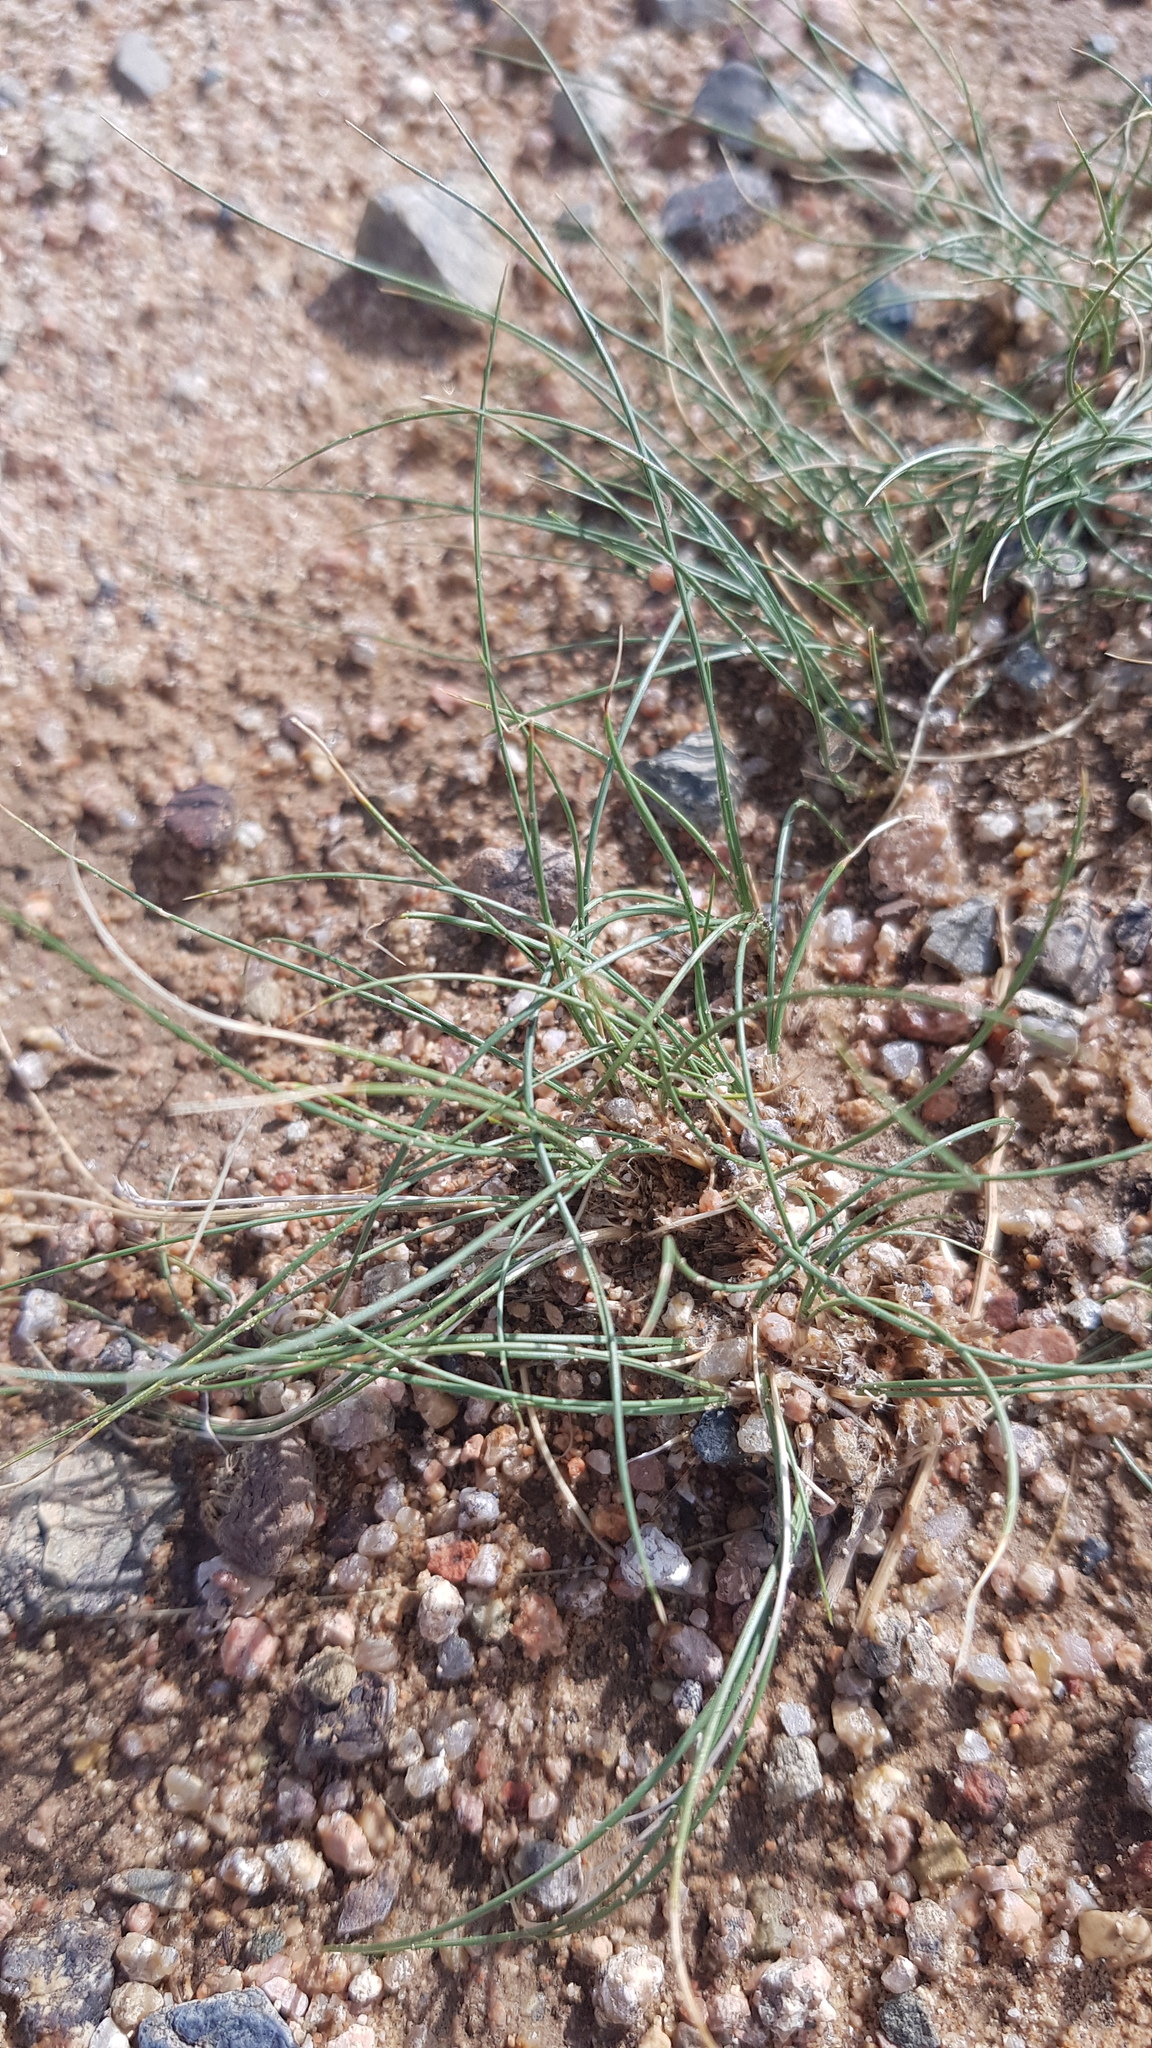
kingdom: Plantae
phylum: Tracheophyta
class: Liliopsida
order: Poales
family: Poaceae
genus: Stipa
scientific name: Stipa tianschanica
